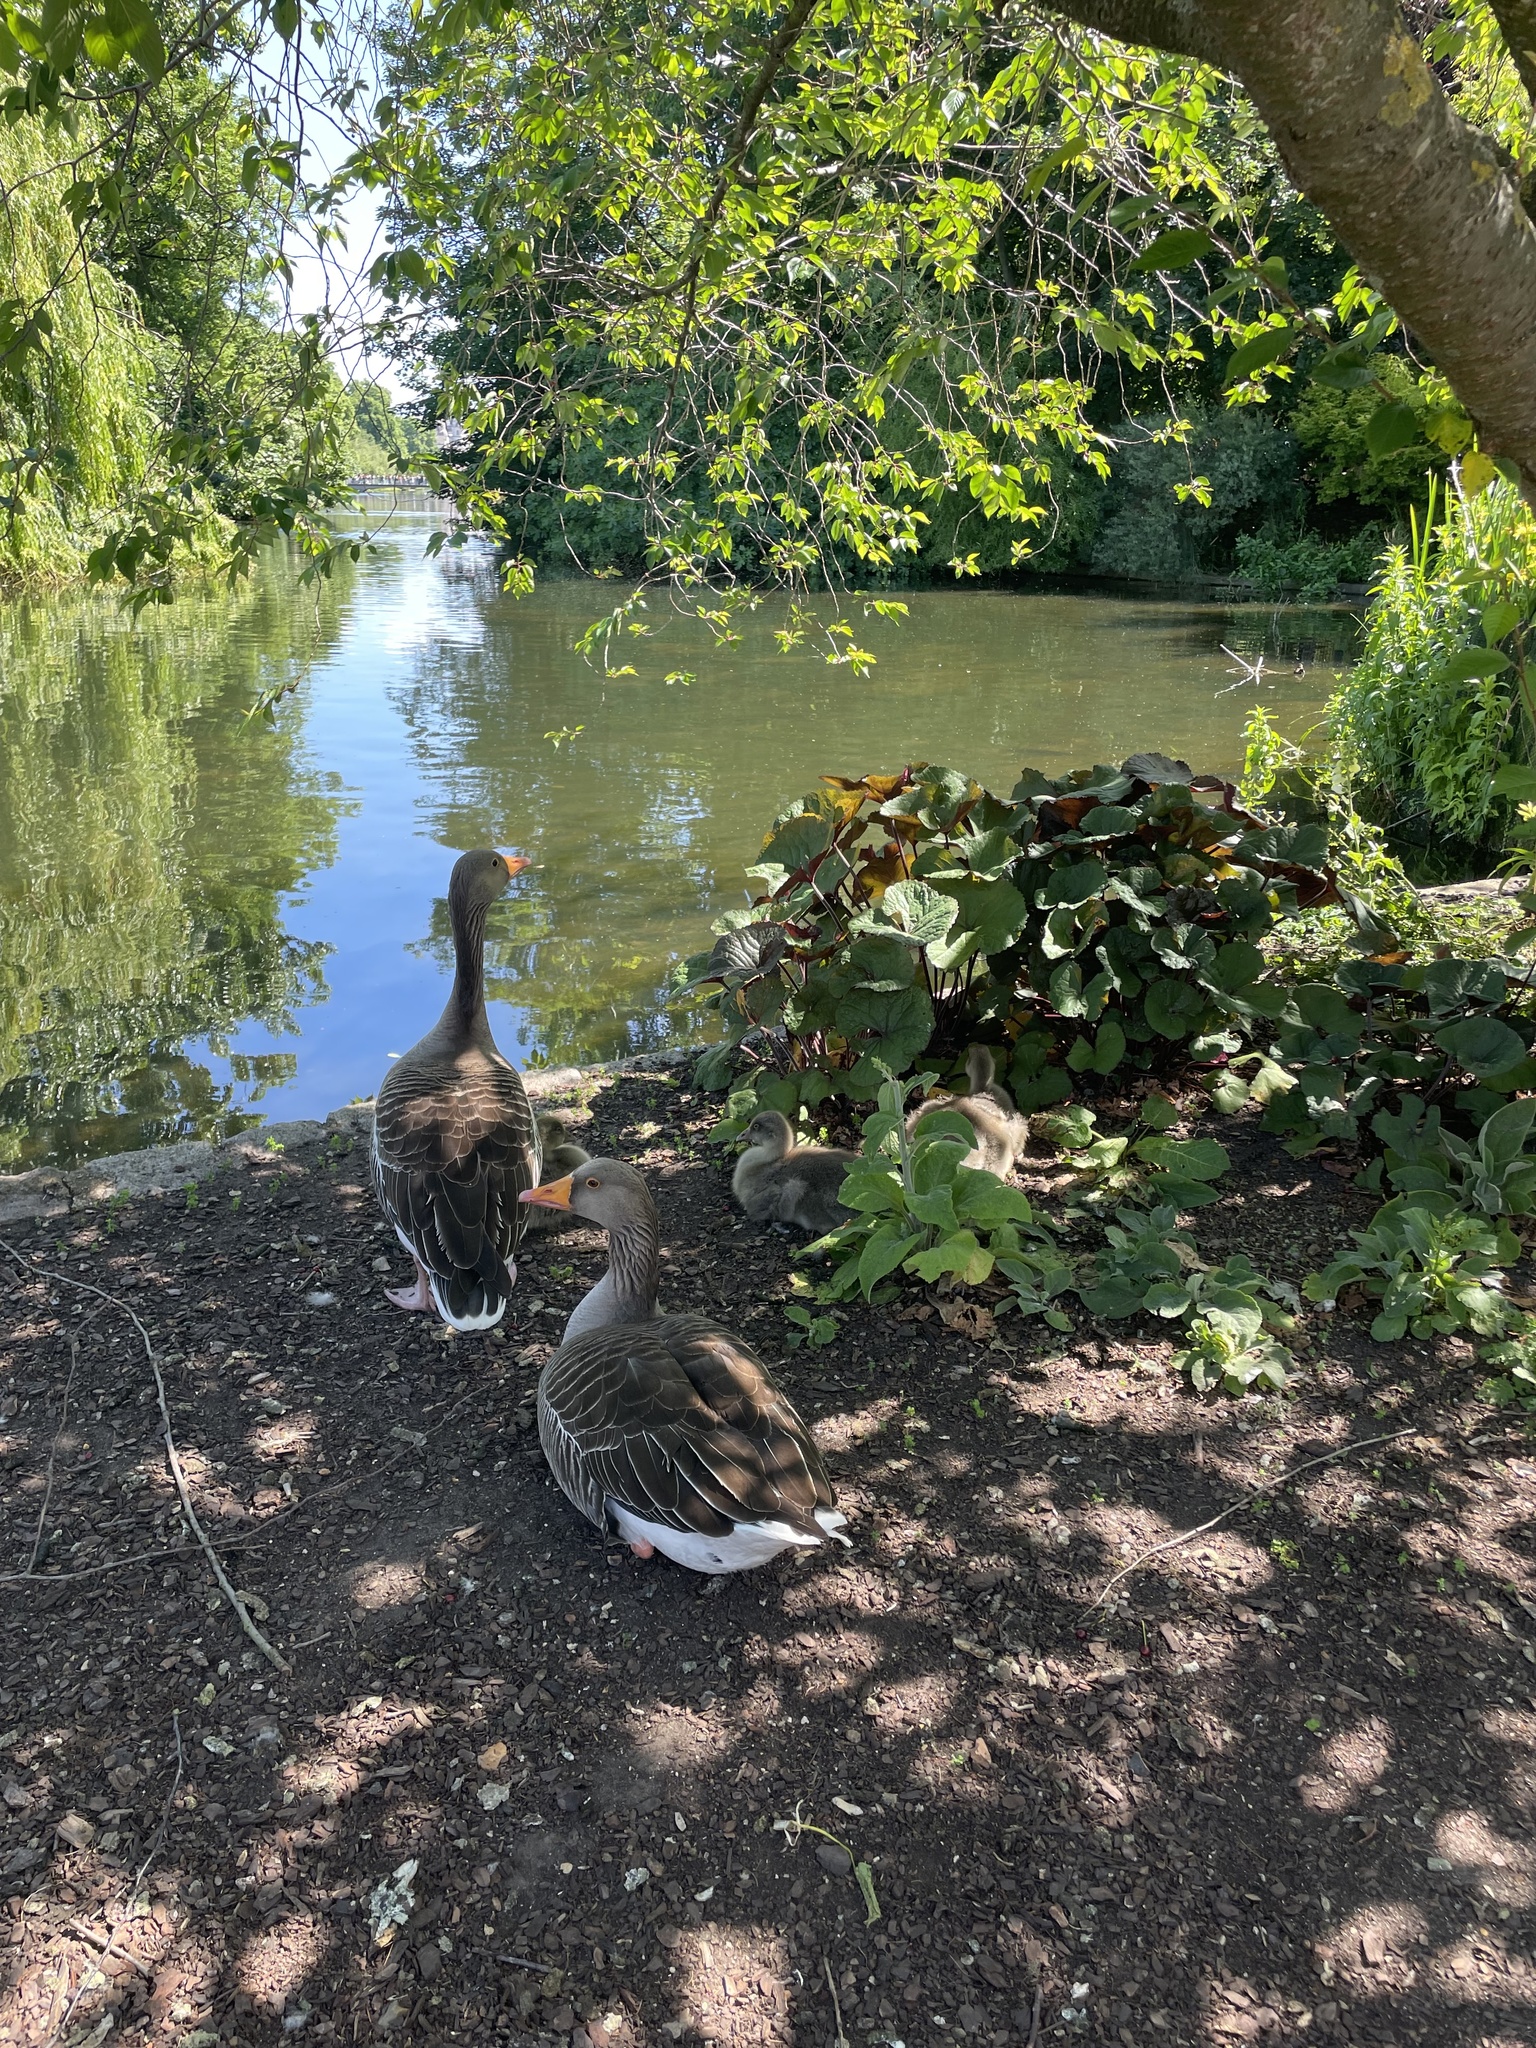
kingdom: Animalia
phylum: Chordata
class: Aves
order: Anseriformes
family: Anatidae
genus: Anser
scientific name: Anser anser
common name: Greylag goose
